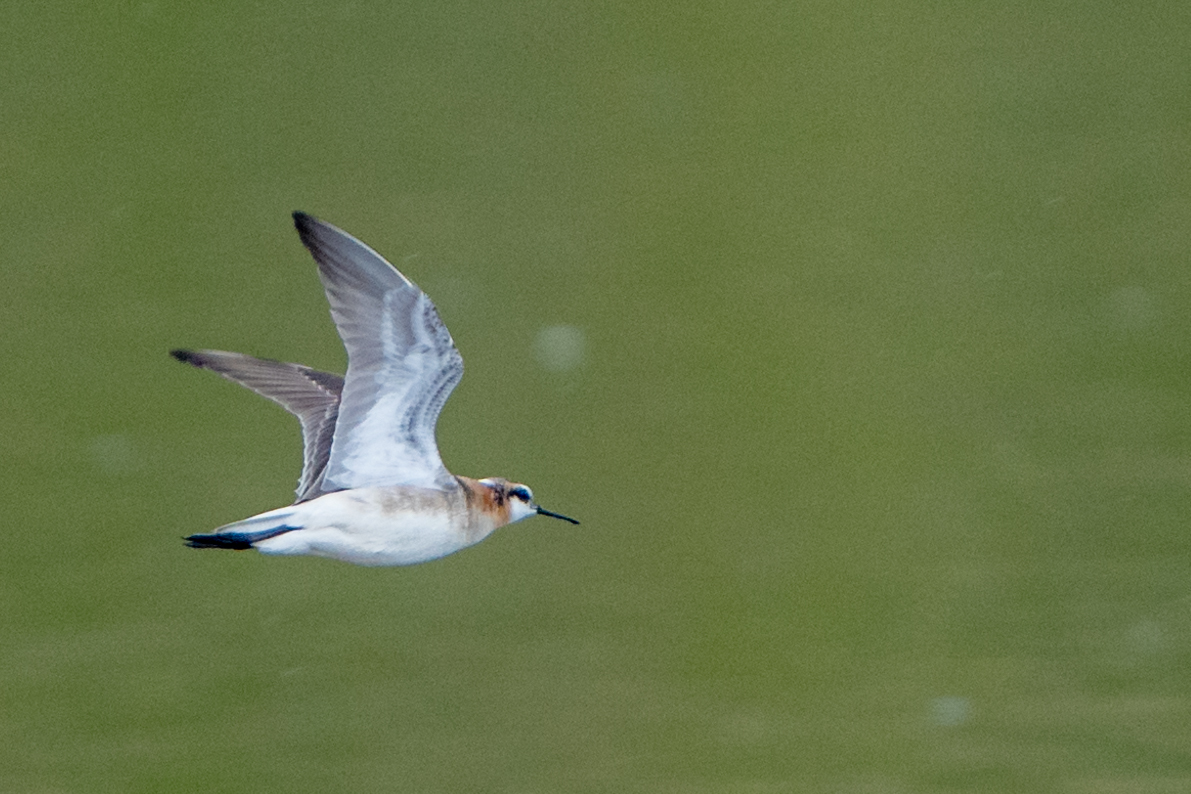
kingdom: Animalia
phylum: Chordata
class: Aves
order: Charadriiformes
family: Scolopacidae
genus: Phalaropus
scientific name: Phalaropus tricolor
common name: Wilson's phalarope
